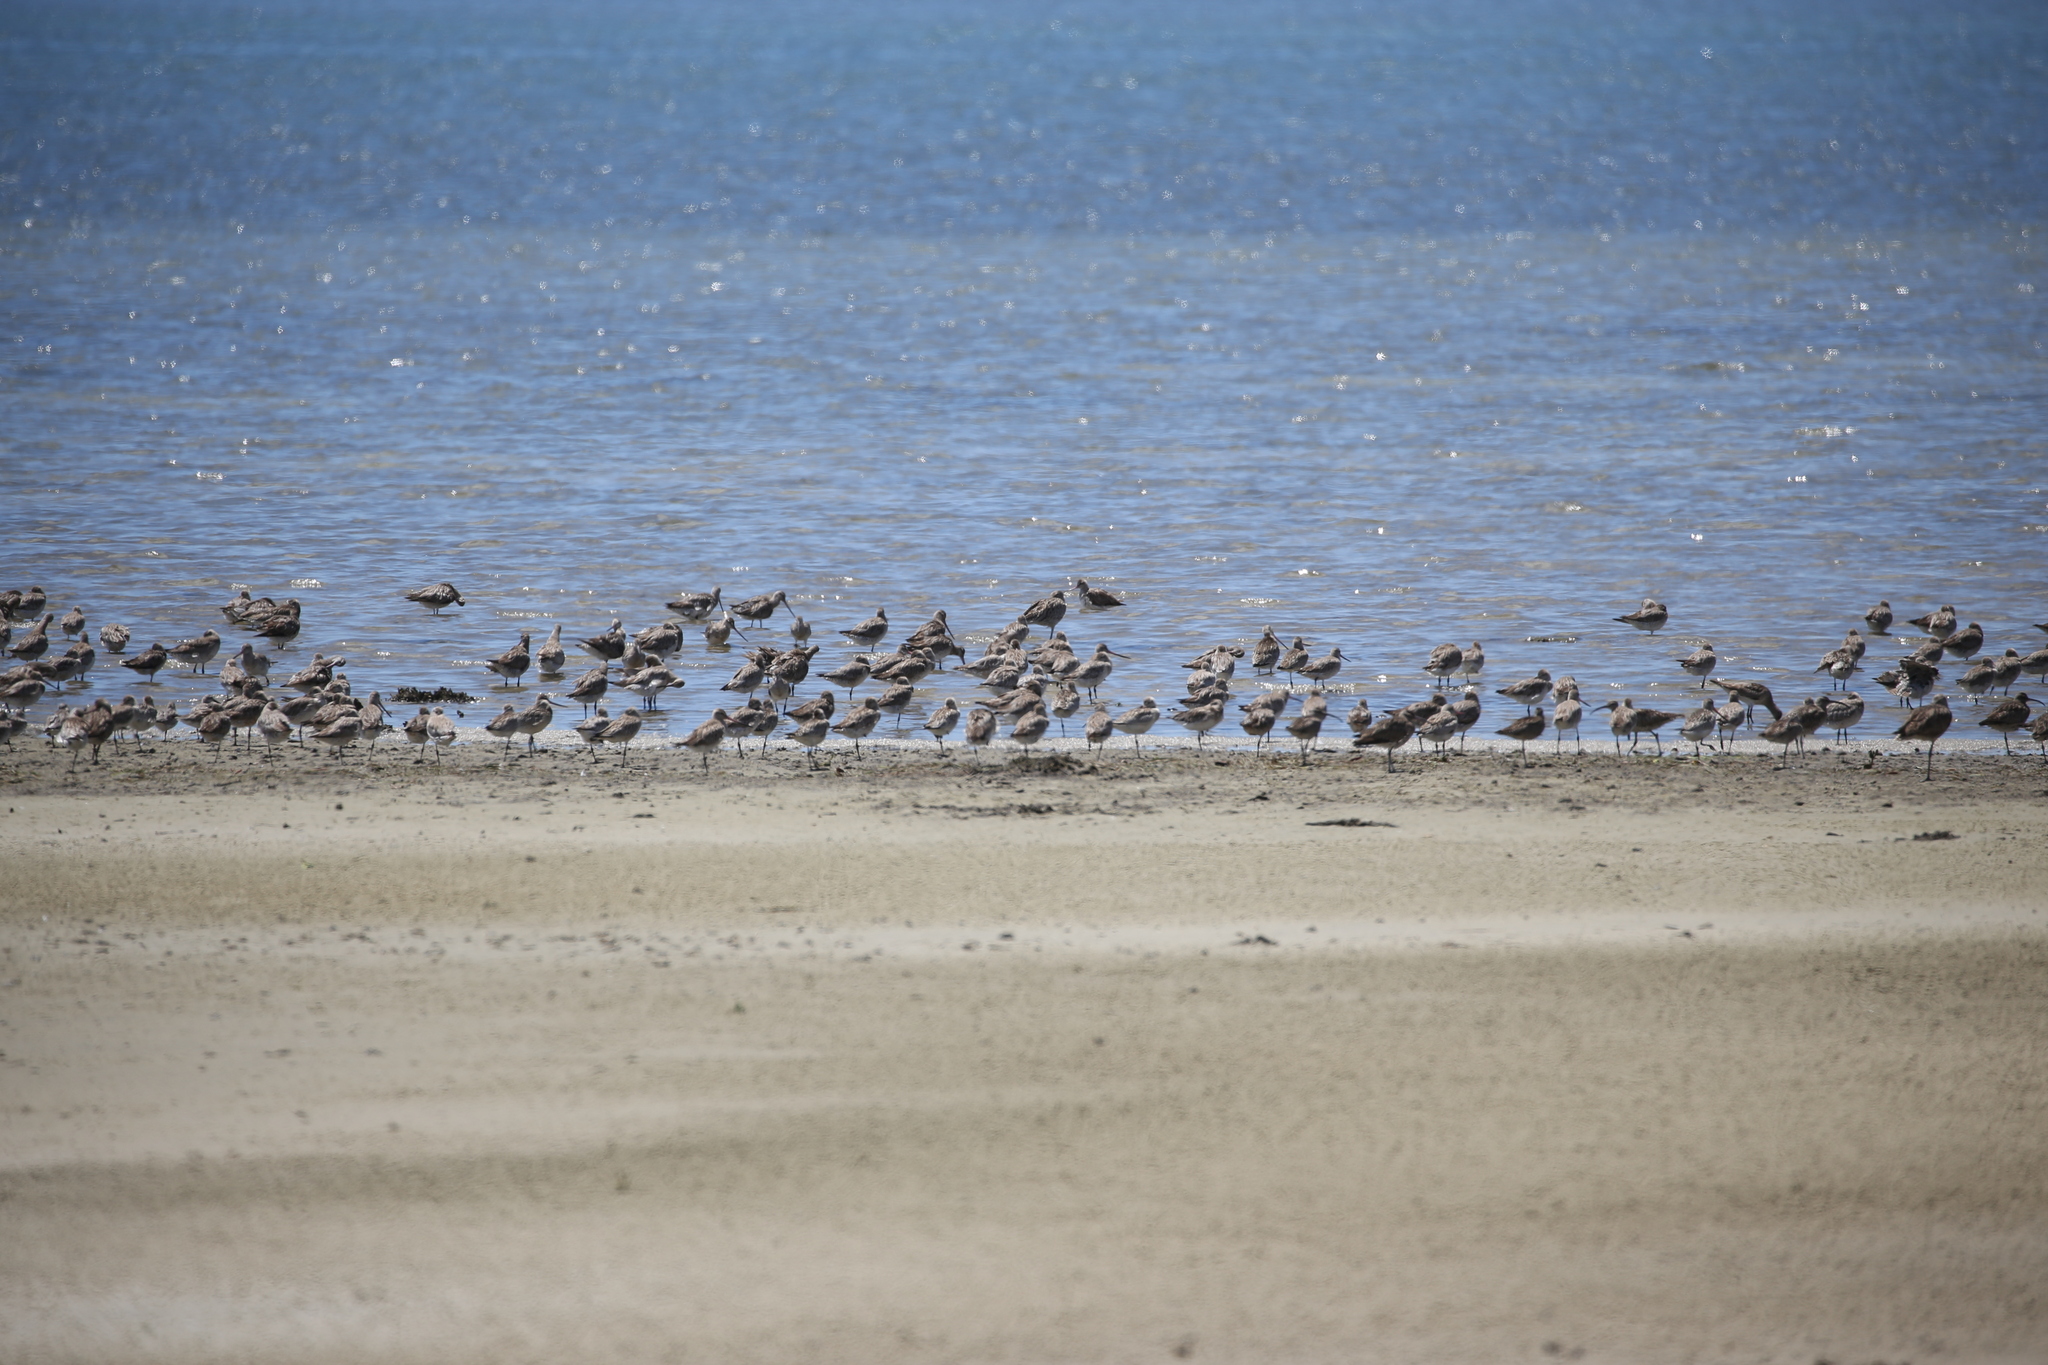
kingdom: Animalia
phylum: Chordata
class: Aves
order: Charadriiformes
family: Scolopacidae
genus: Limosa
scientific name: Limosa lapponica
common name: Bar-tailed godwit
